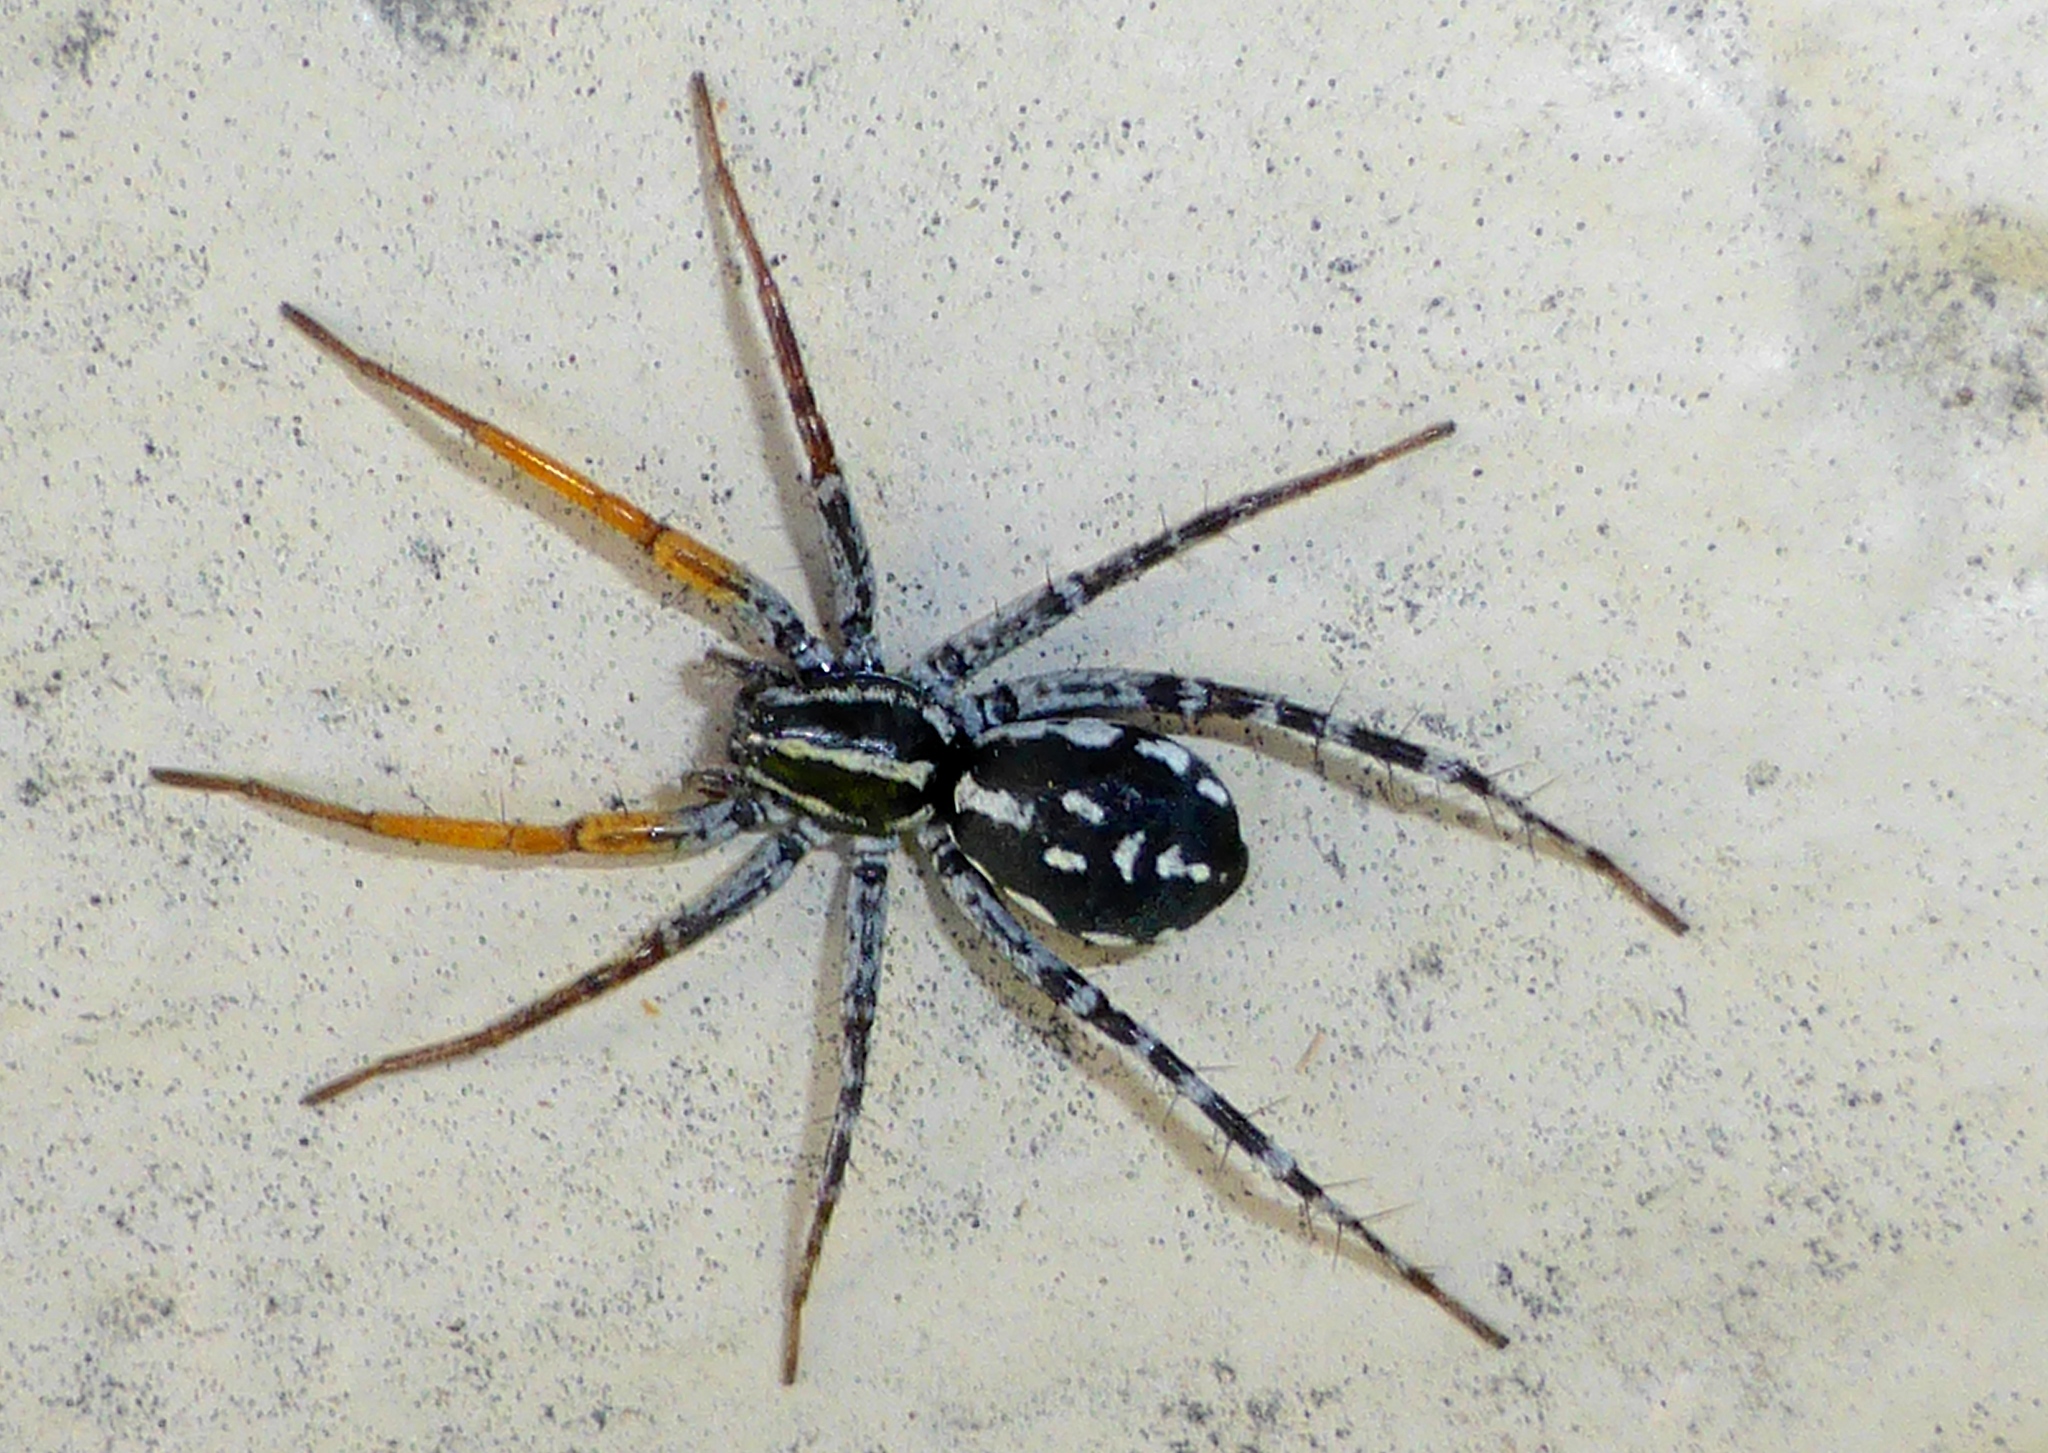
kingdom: Animalia
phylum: Arthropoda
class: Arachnida
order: Araneae
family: Corinnidae
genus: Nyssus
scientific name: Nyssus coloripes
